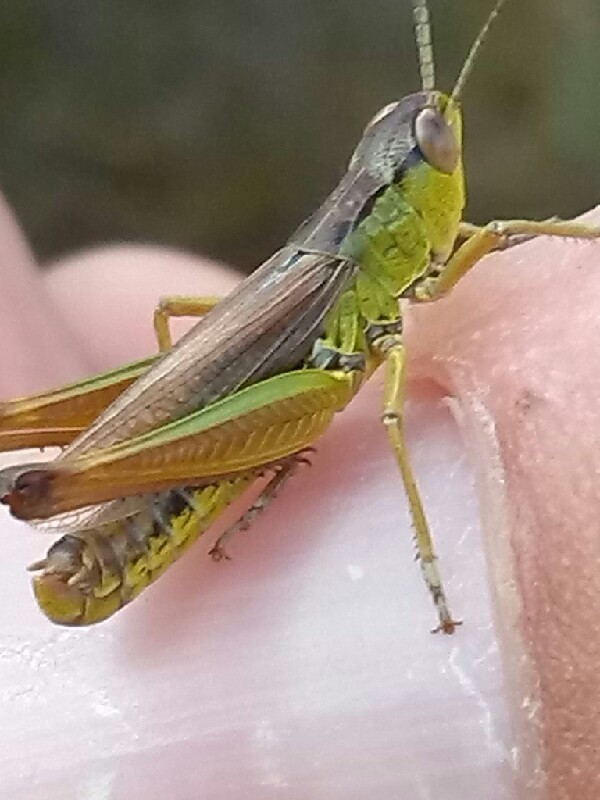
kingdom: Animalia
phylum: Arthropoda
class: Insecta
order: Orthoptera
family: Acrididae
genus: Pseudochorthippus
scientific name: Pseudochorthippus montanus
